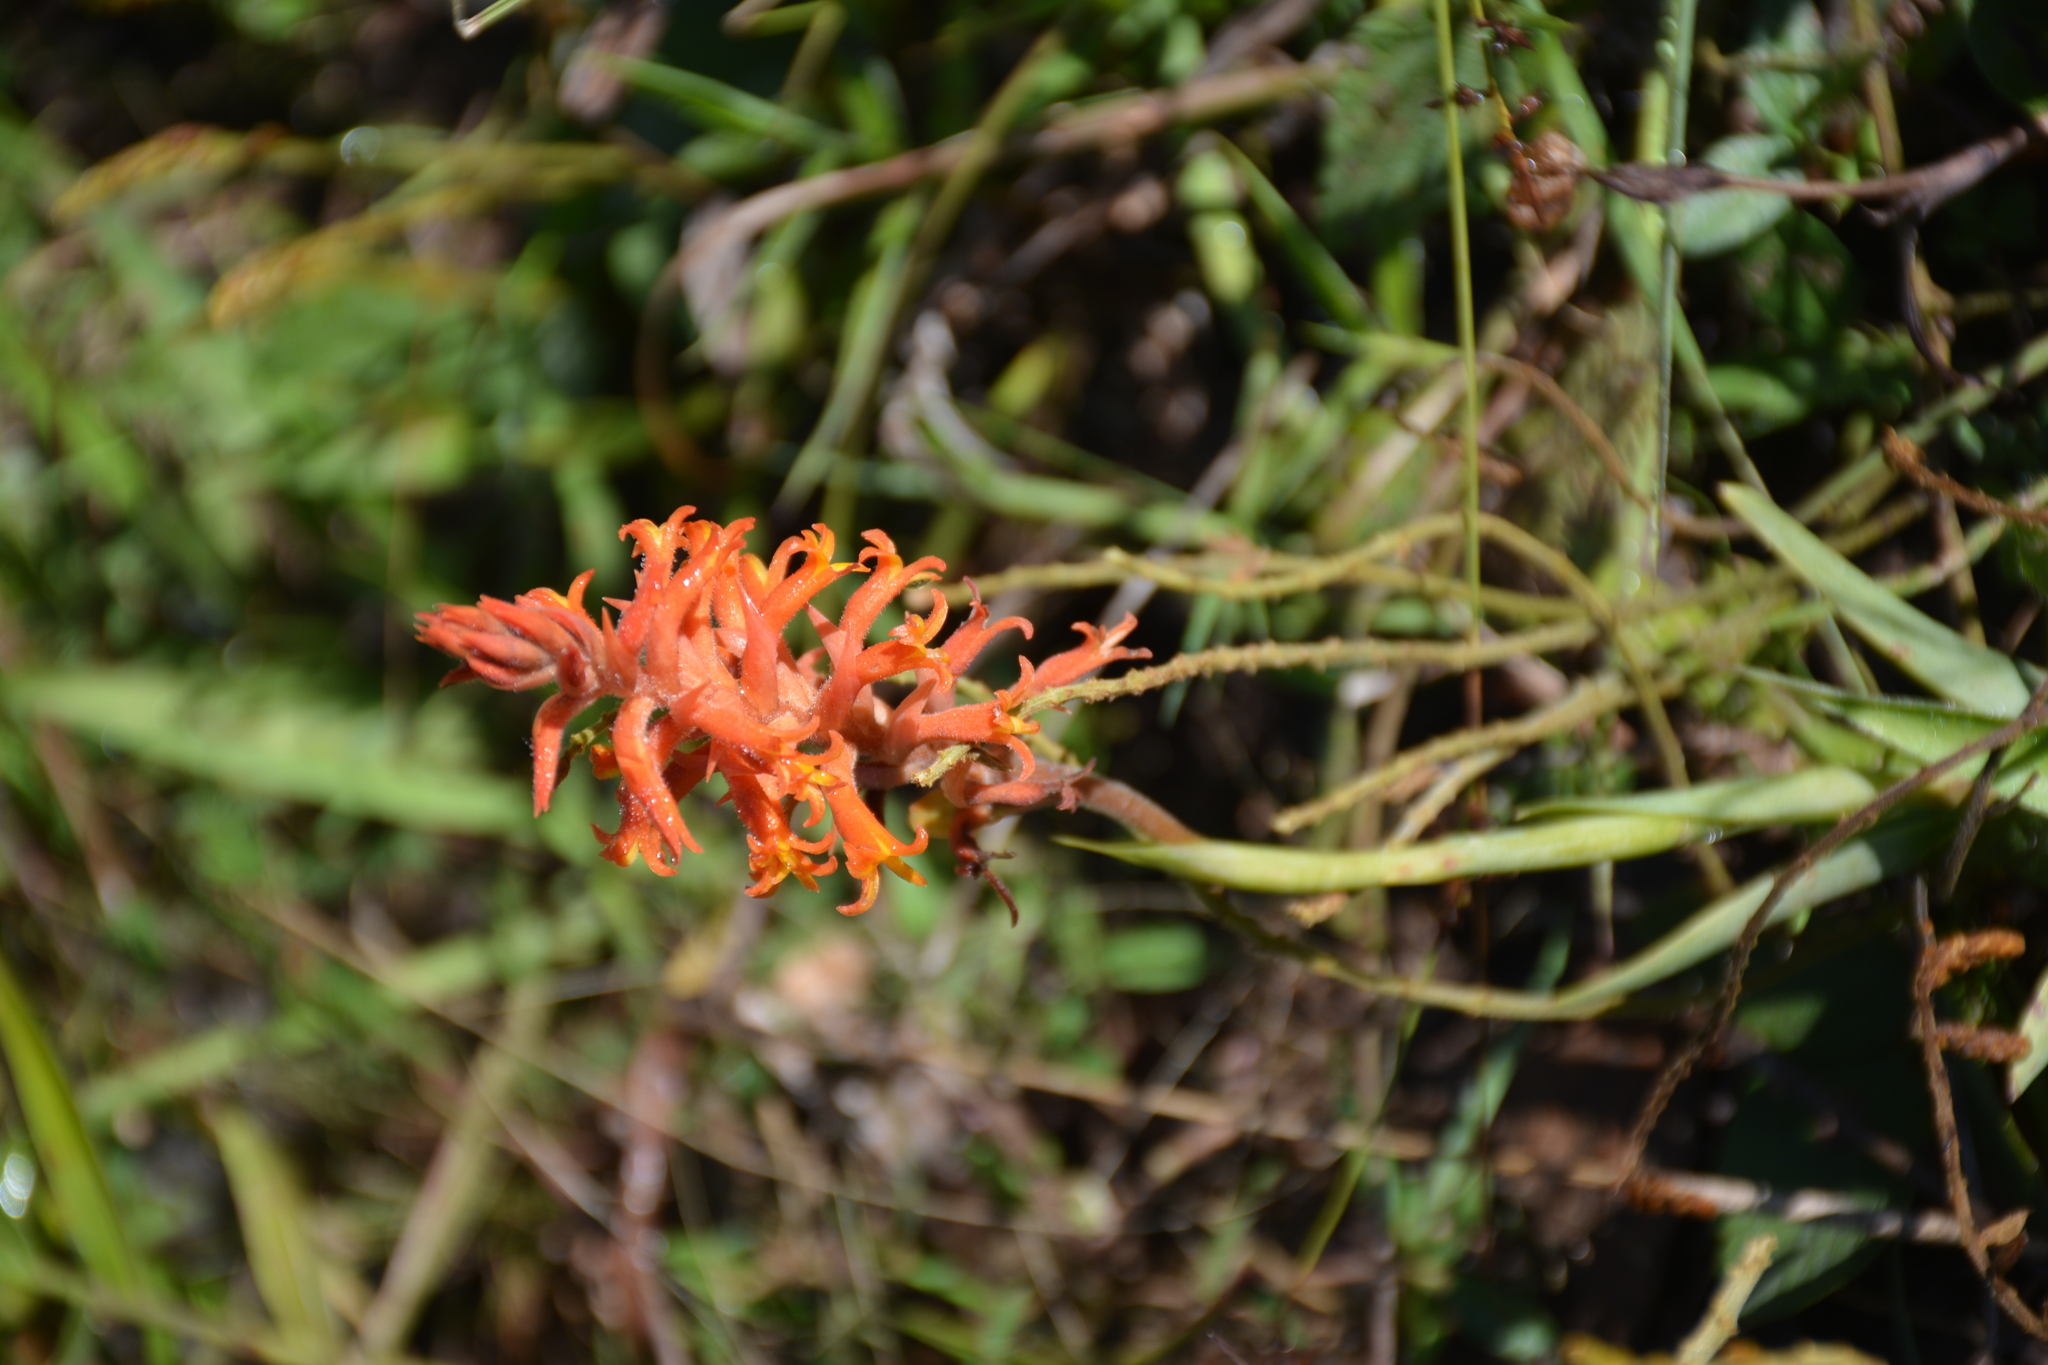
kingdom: Plantae
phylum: Tracheophyta
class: Liliopsida
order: Asparagales
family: Orchidaceae
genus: Dichromanthus
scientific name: Dichromanthus cinnabarinus
